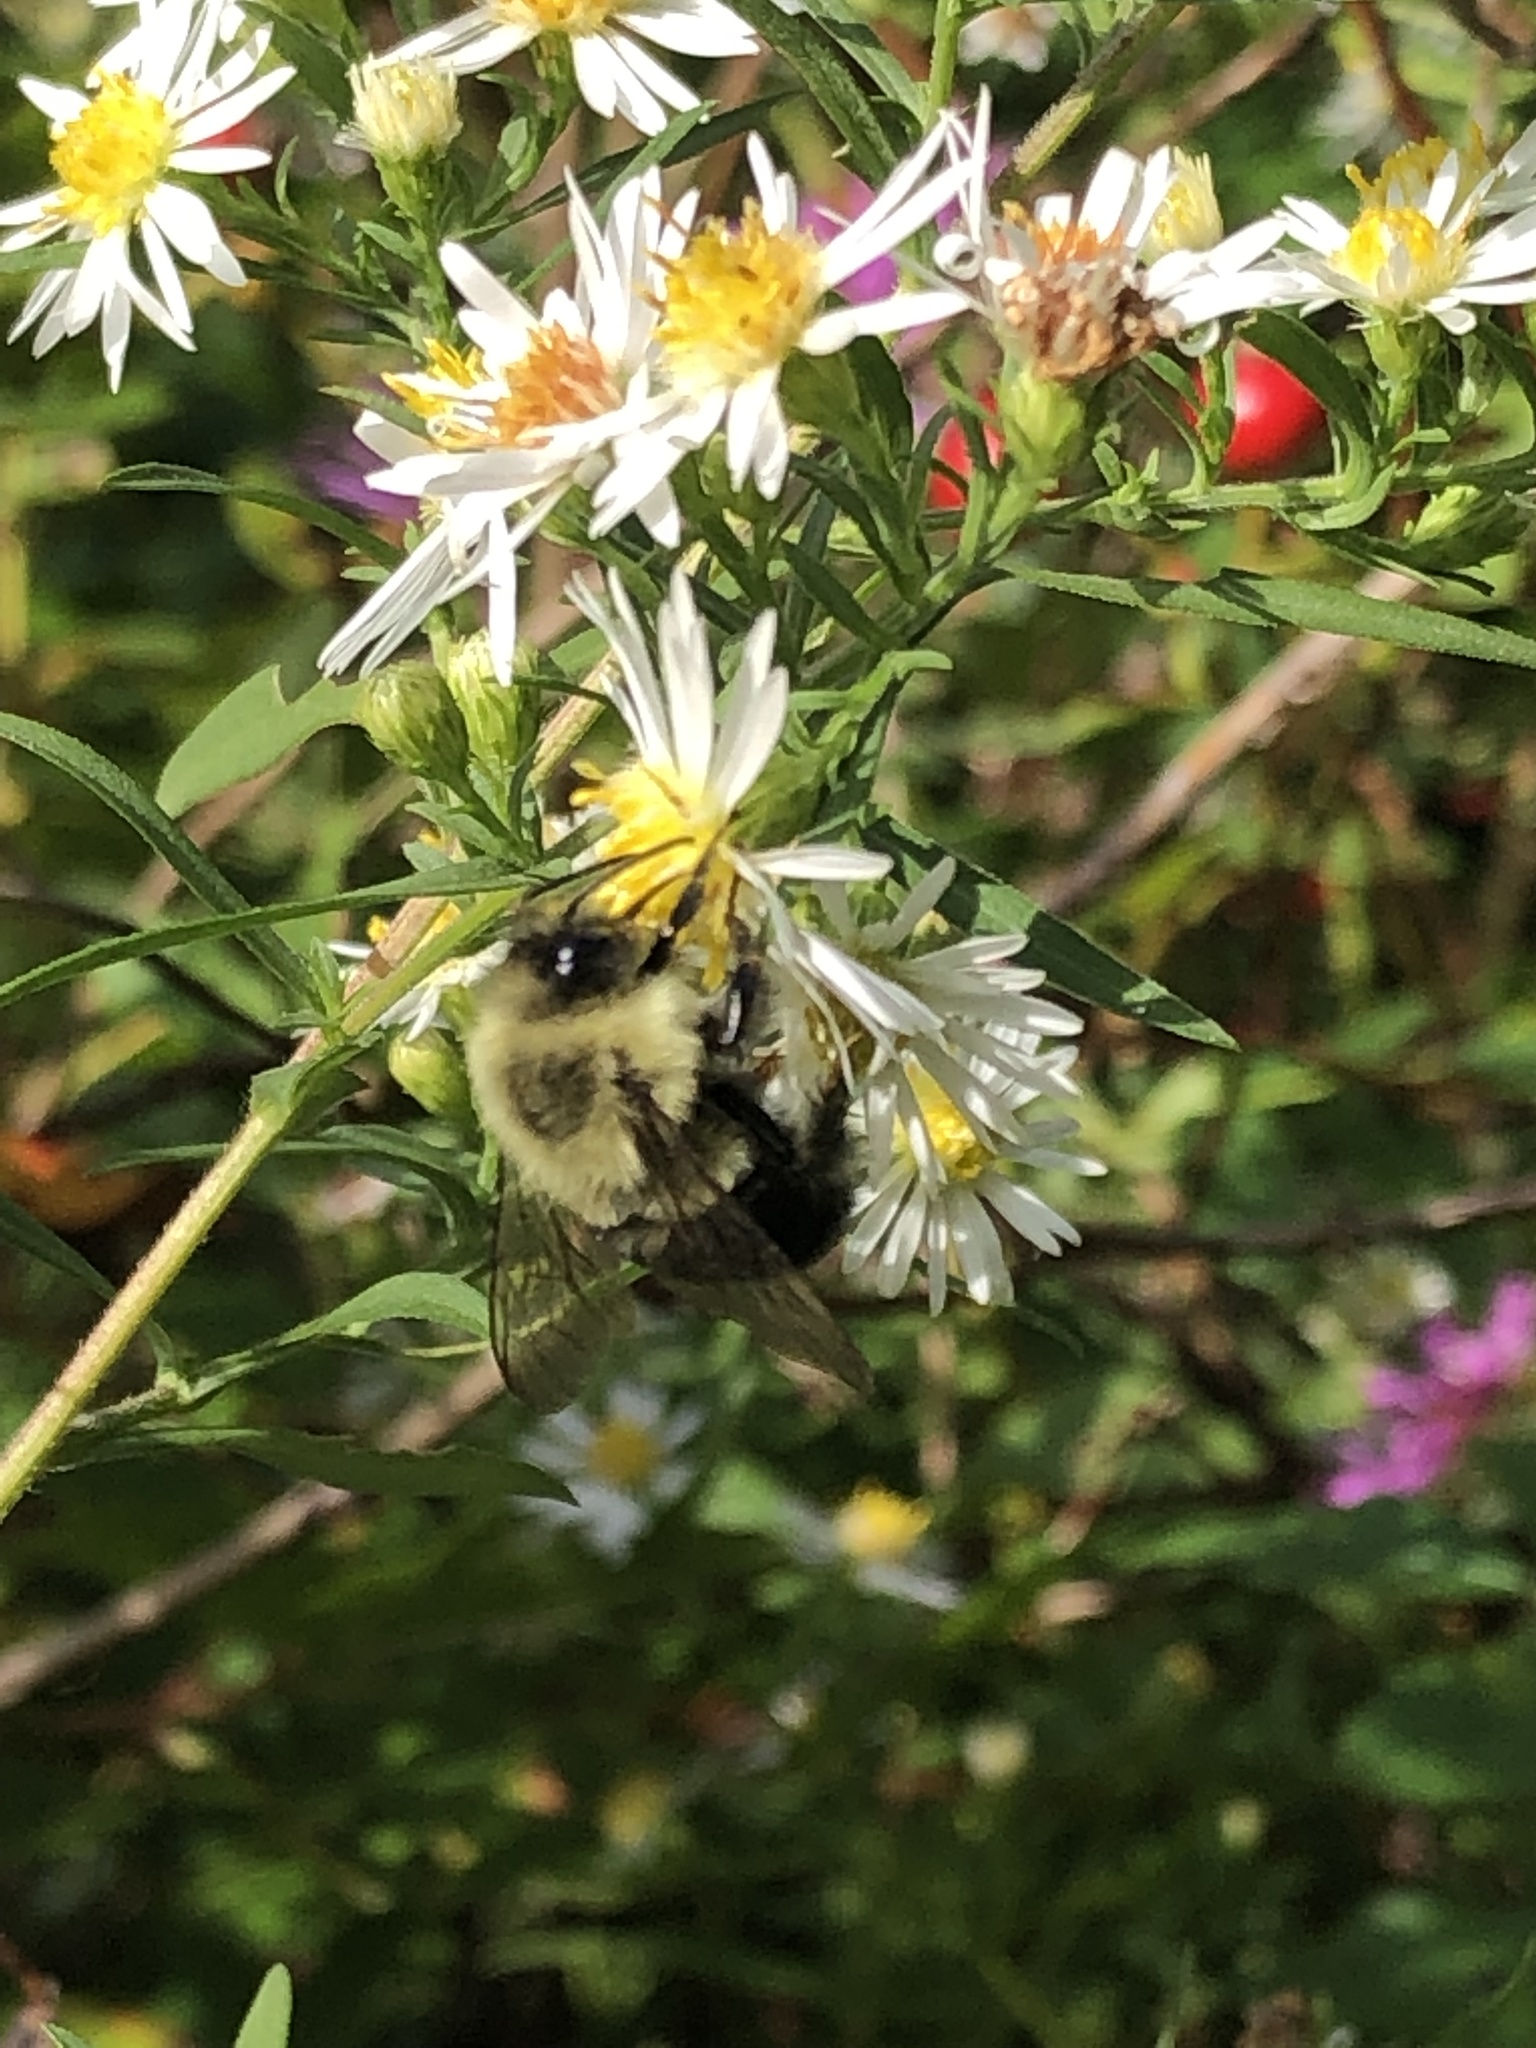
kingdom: Animalia
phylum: Arthropoda
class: Insecta
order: Hymenoptera
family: Apidae
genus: Bombus
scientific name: Bombus impatiens
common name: Common eastern bumble bee
